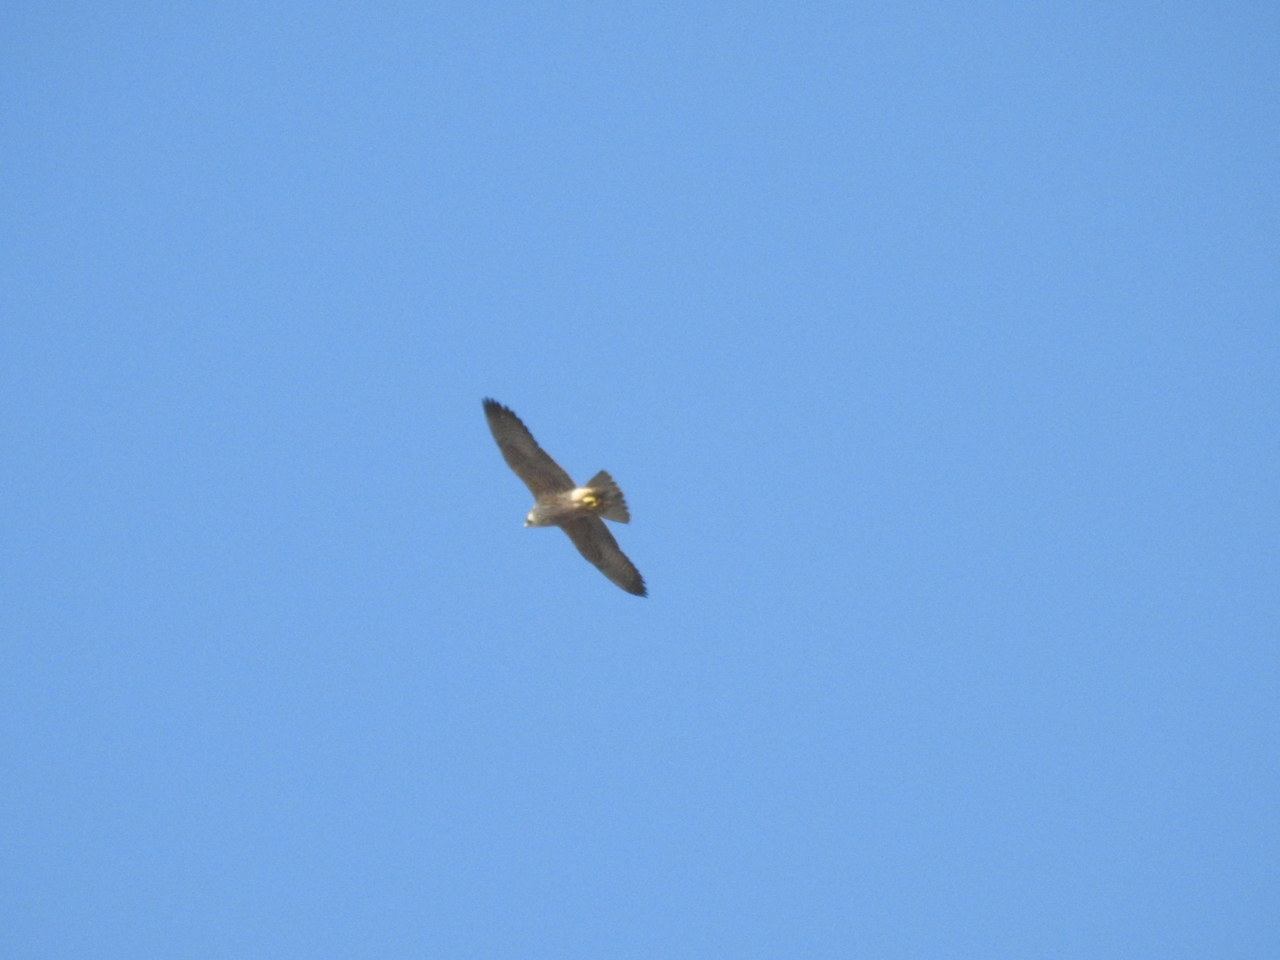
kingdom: Animalia
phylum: Chordata
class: Aves
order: Falconiformes
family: Falconidae
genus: Falco
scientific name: Falco peregrinus
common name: Peregrine falcon
